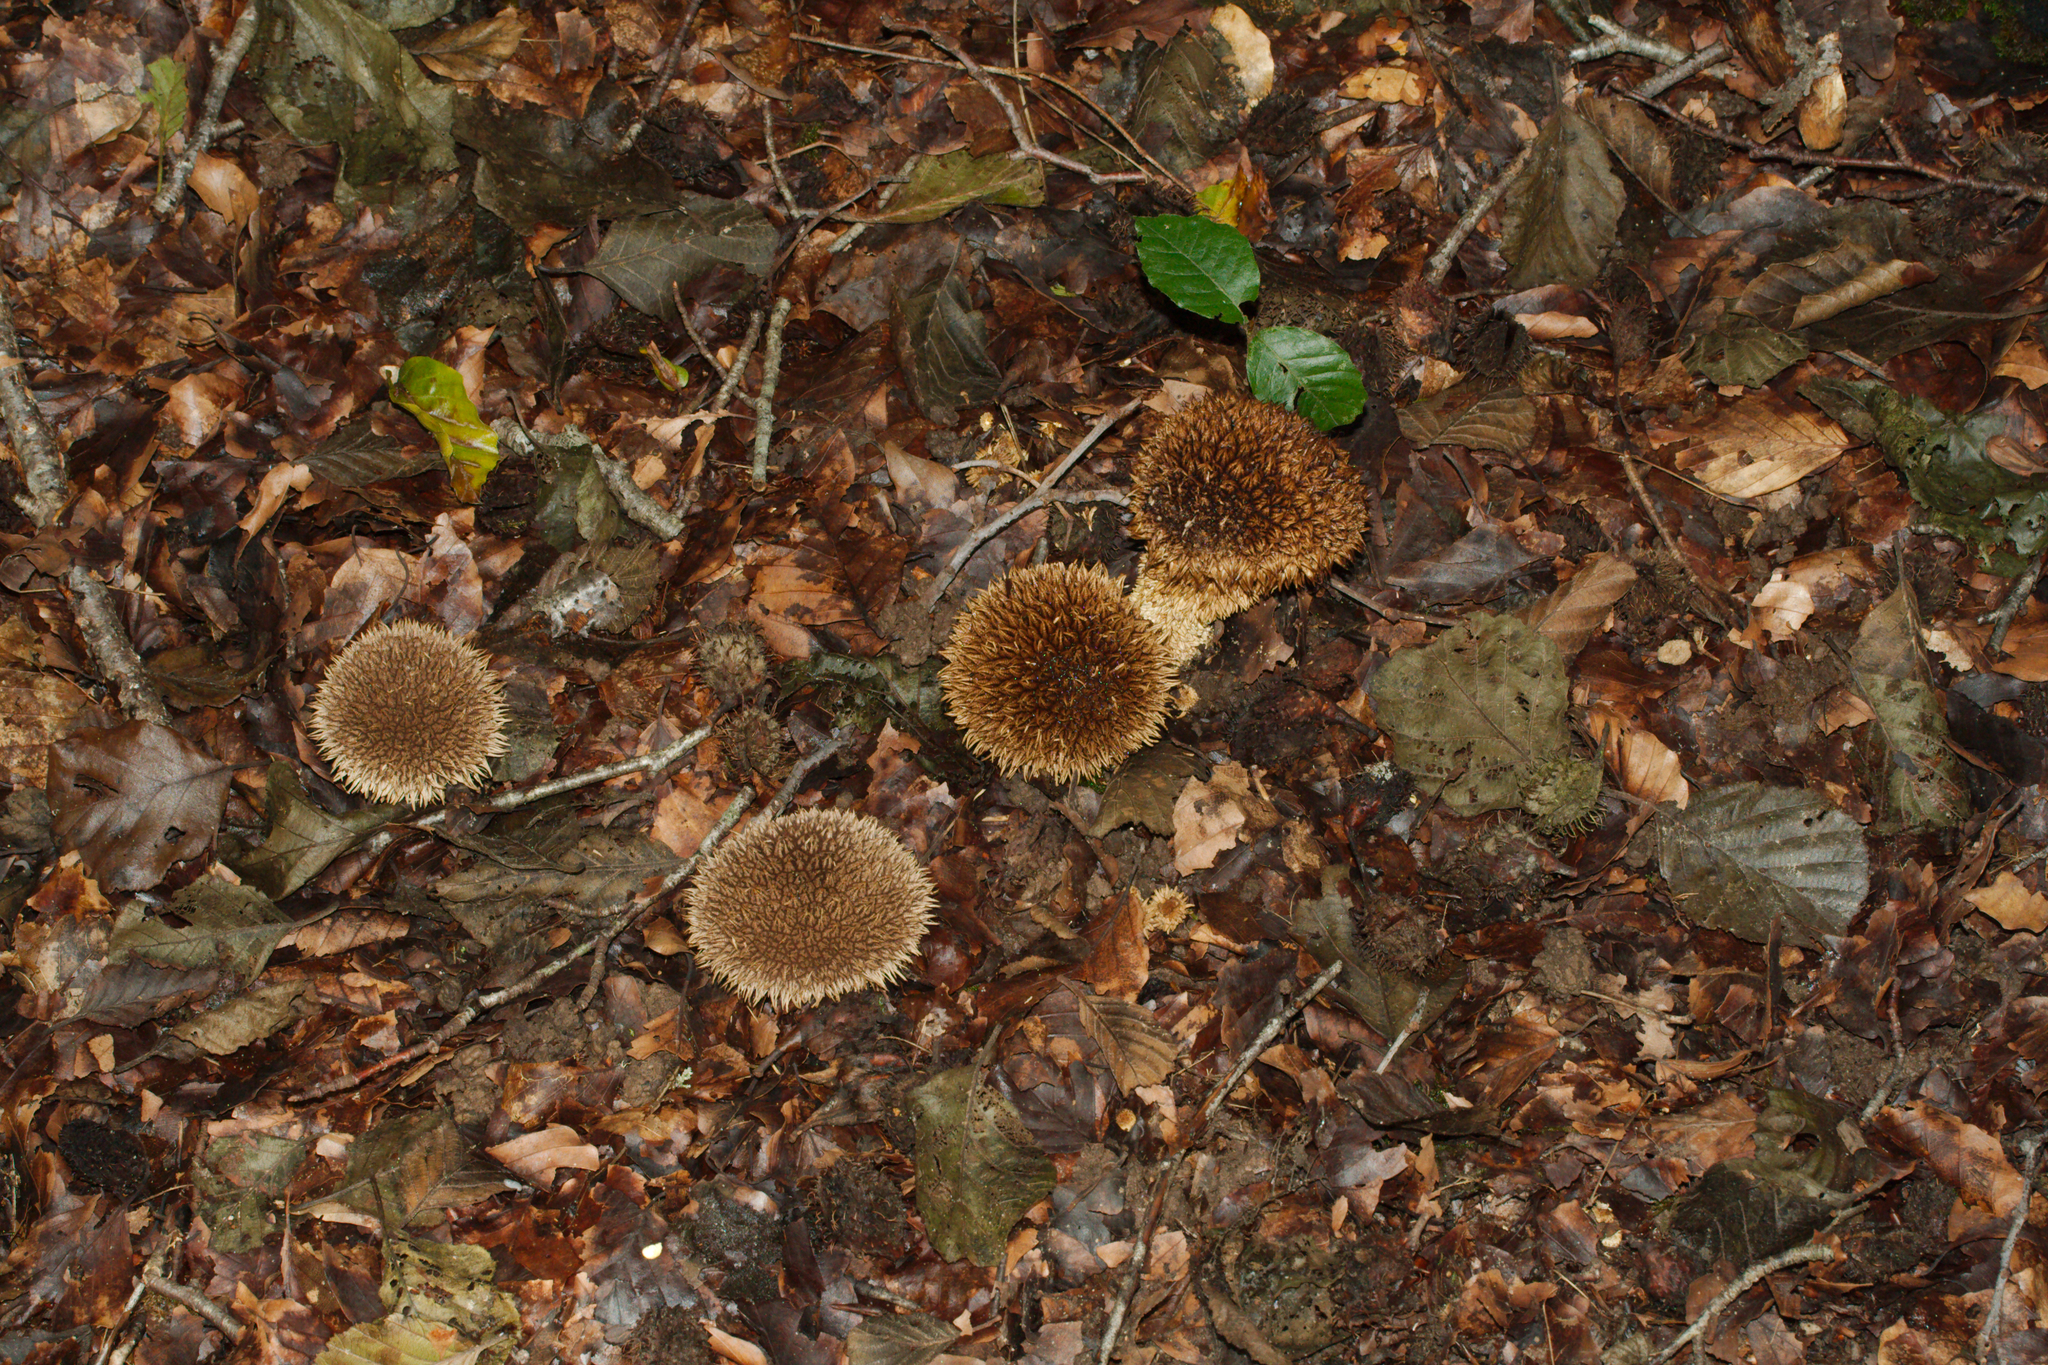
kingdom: Fungi
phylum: Basidiomycota
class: Agaricomycetes
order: Agaricales
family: Lycoperdaceae
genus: Lycoperdon
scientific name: Lycoperdon echinatum
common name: Hedgehog puffball
